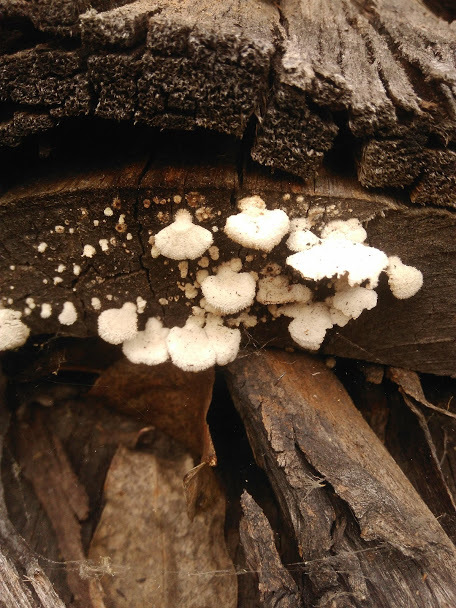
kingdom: Fungi
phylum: Basidiomycota
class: Agaricomycetes
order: Agaricales
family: Schizophyllaceae
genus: Schizophyllum
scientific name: Schizophyllum commune
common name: Common porecrust
